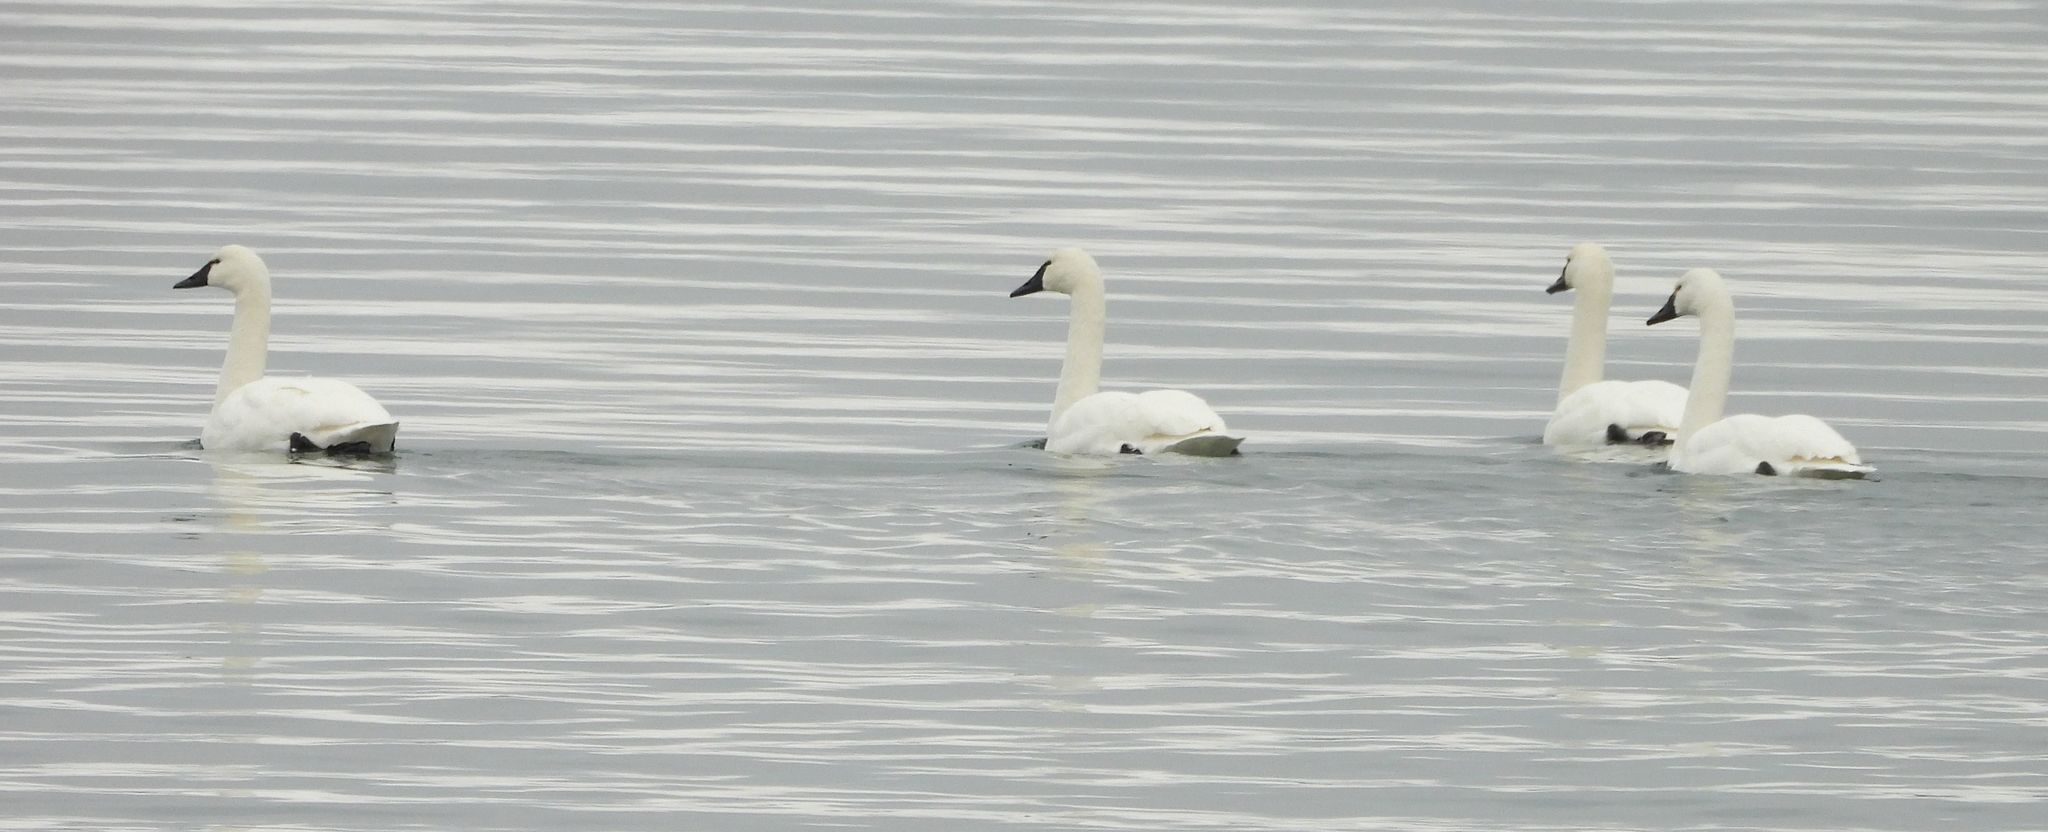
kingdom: Animalia
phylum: Chordata
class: Aves
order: Anseriformes
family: Anatidae
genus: Cygnus
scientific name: Cygnus columbianus
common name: Tundra swan
